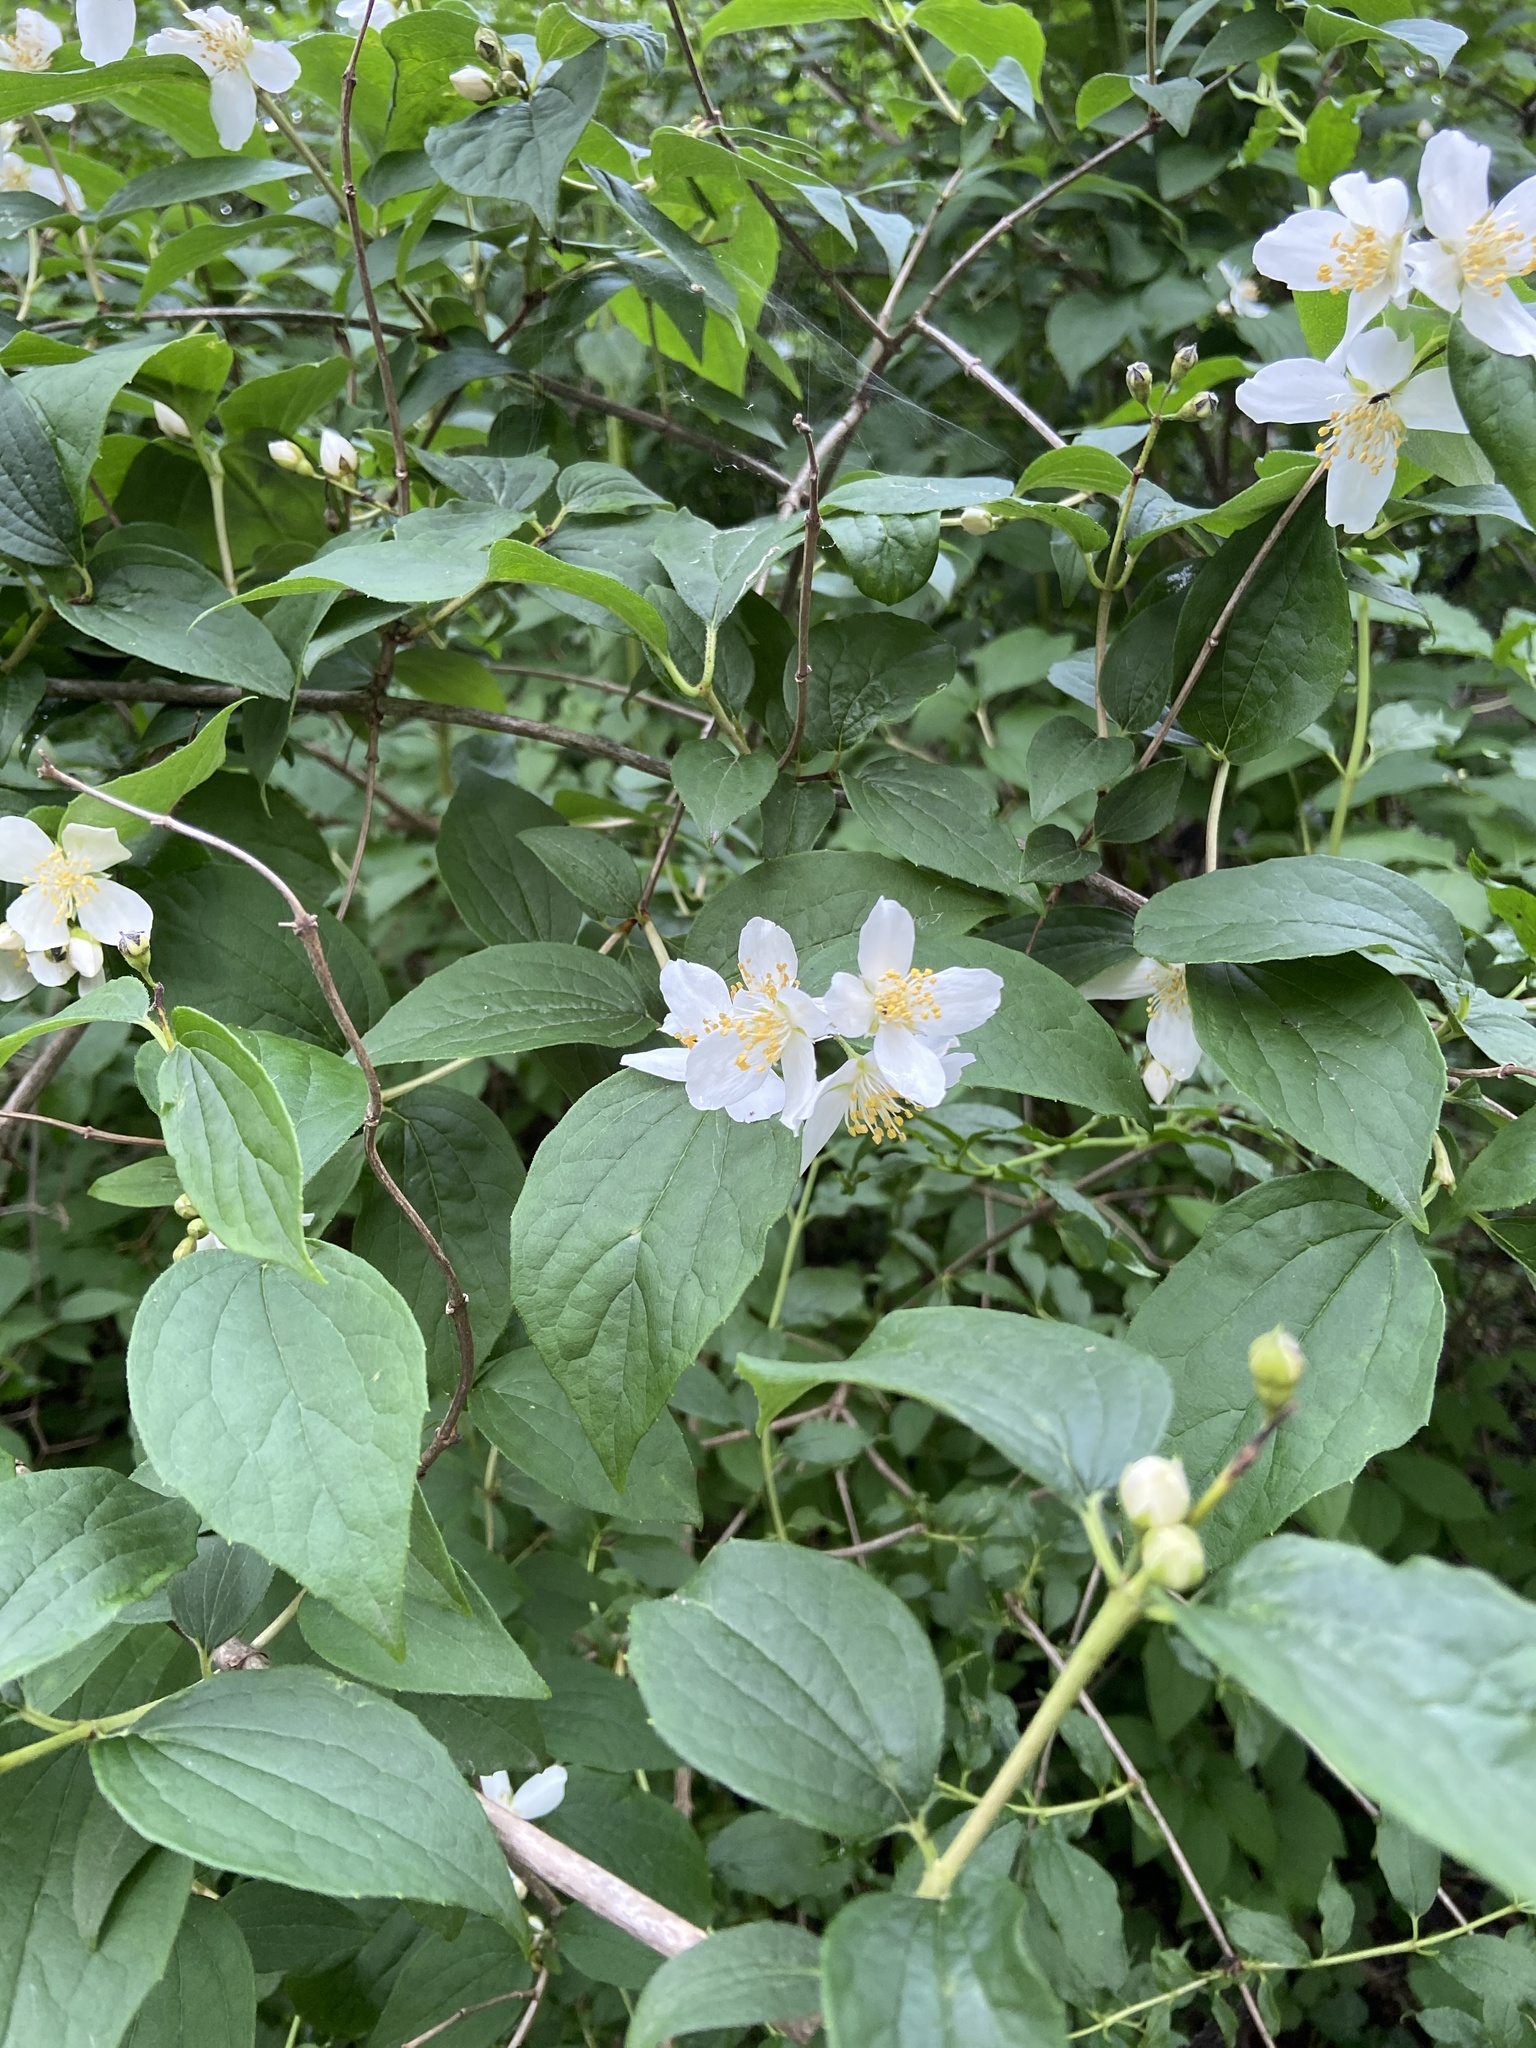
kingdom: Plantae
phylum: Tracheophyta
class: Magnoliopsida
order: Cornales
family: Hydrangeaceae
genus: Philadelphus
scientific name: Philadelphus coronarius
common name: Mock orange
